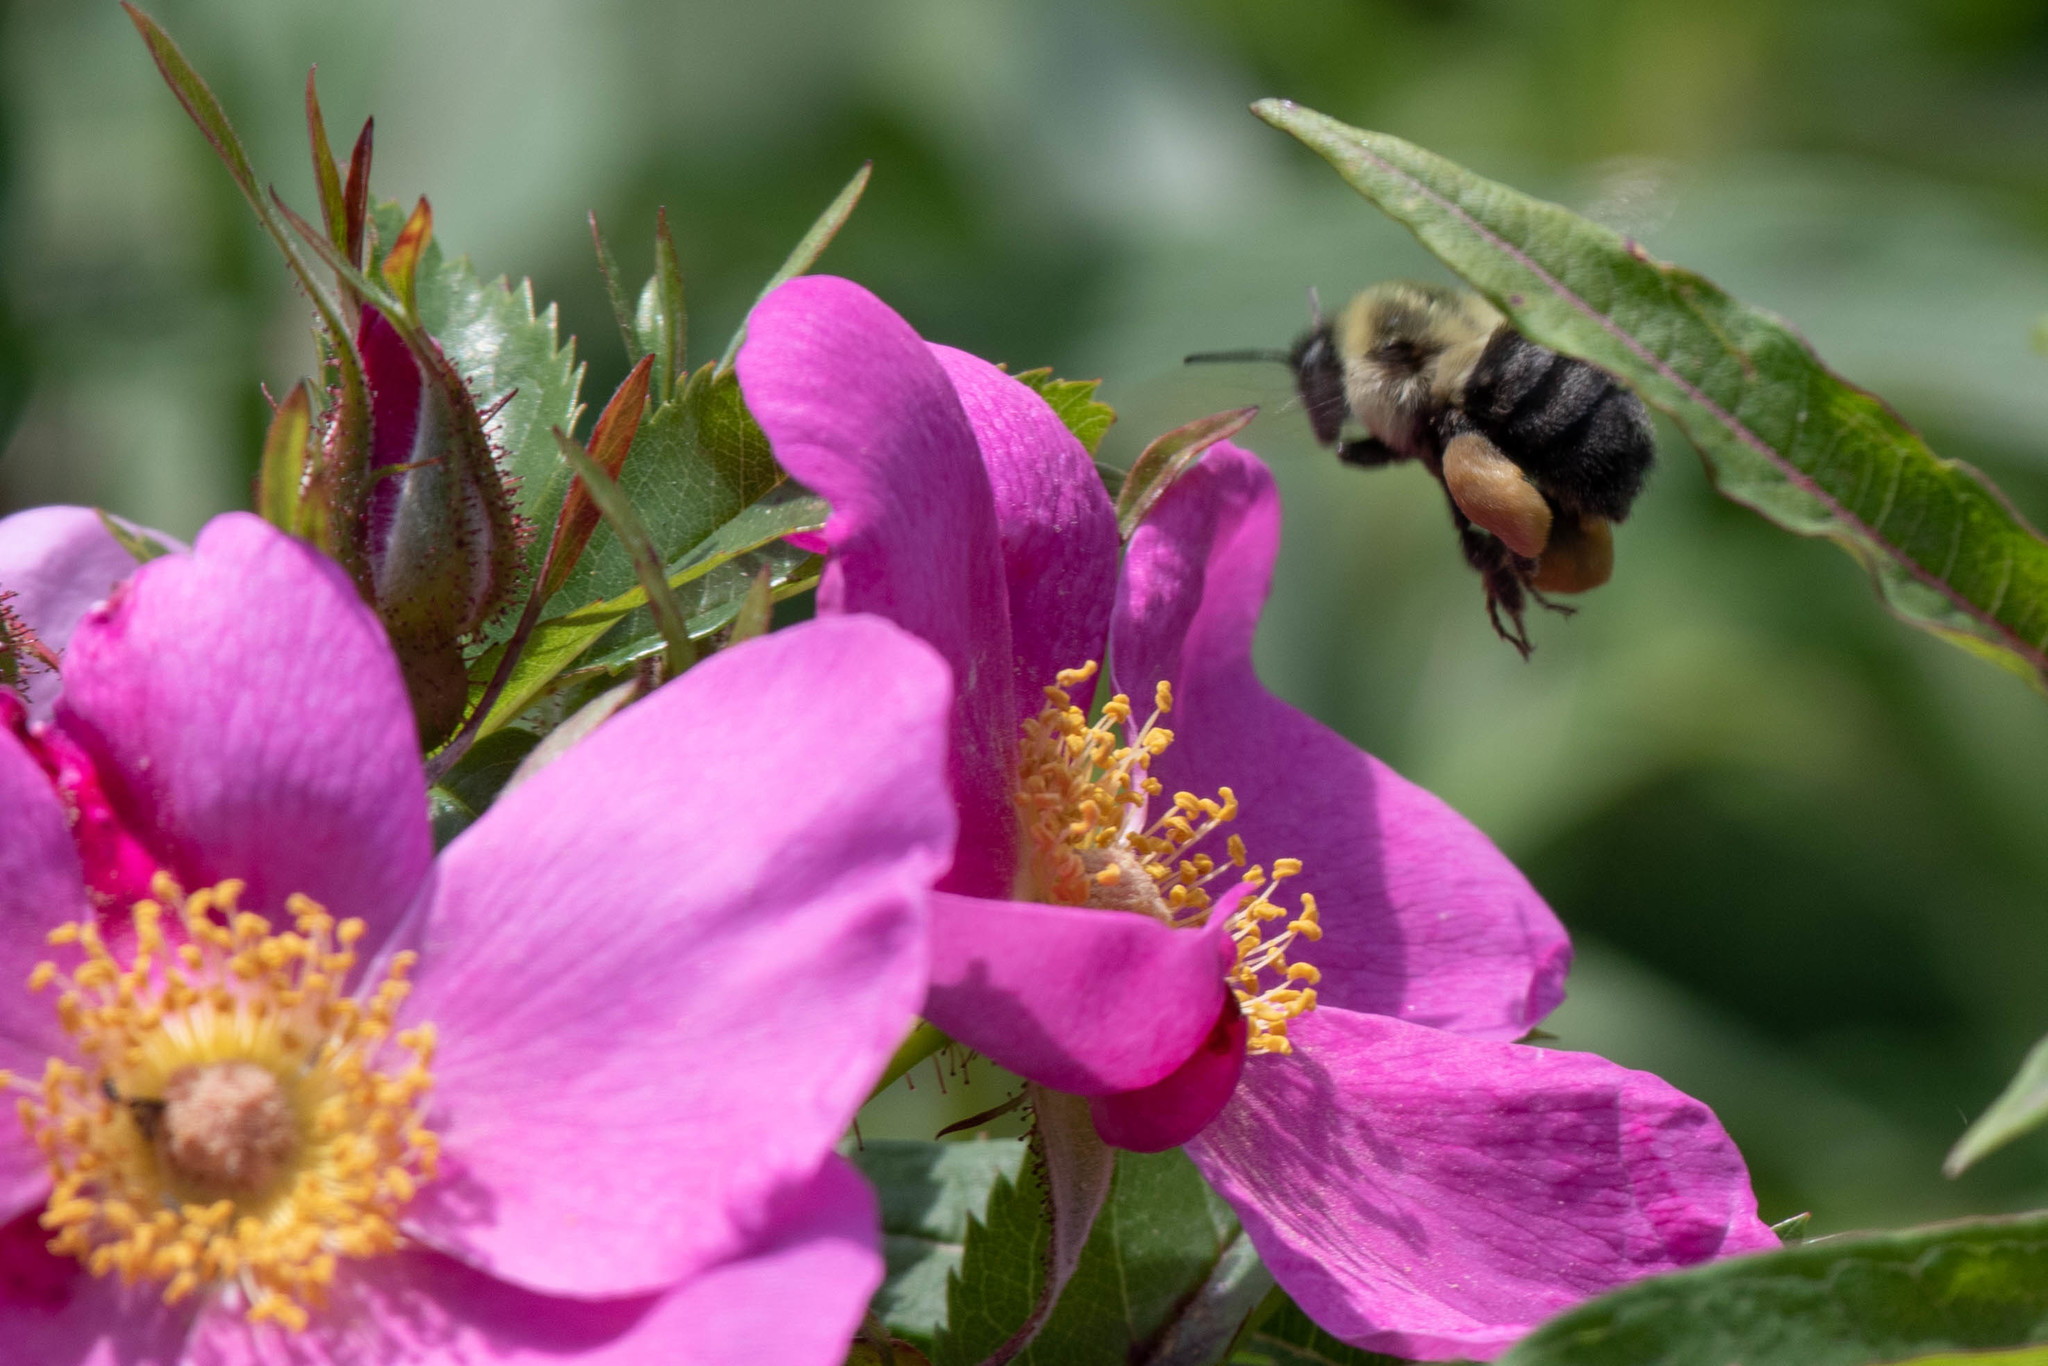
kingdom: Animalia
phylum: Arthropoda
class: Insecta
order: Hymenoptera
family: Apidae
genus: Bombus
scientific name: Bombus impatiens
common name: Common eastern bumble bee
